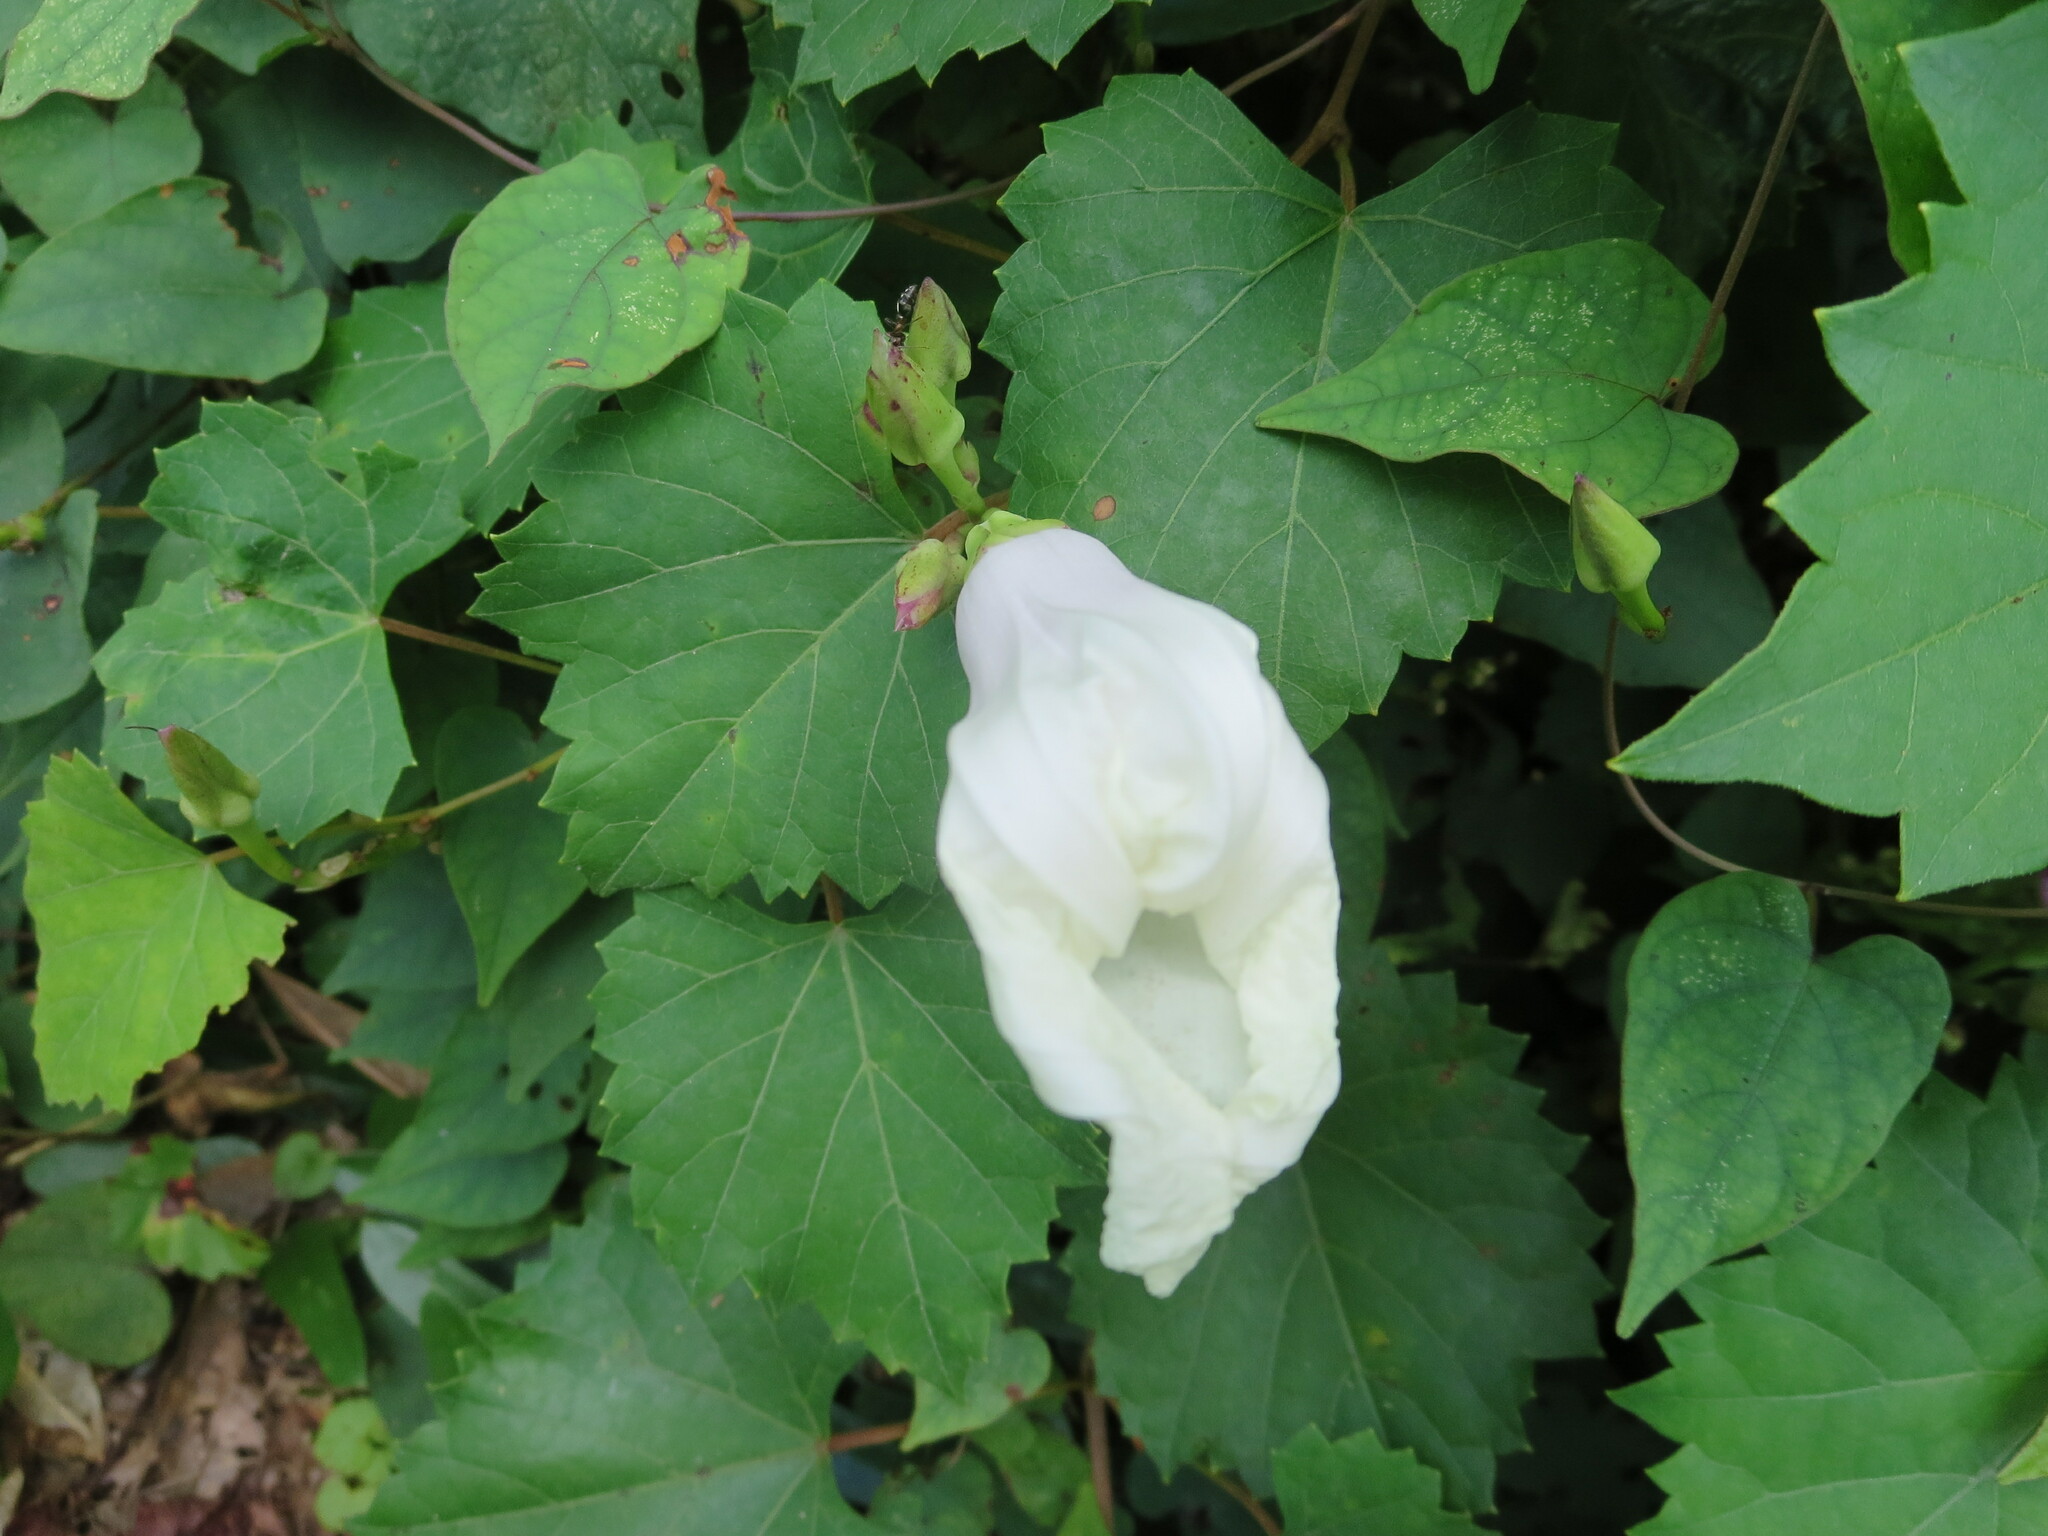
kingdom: Plantae
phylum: Tracheophyta
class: Magnoliopsida
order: Solanales
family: Convolvulaceae
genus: Ipomoea
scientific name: Ipomoea pandurata
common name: Man-of-the-earth
